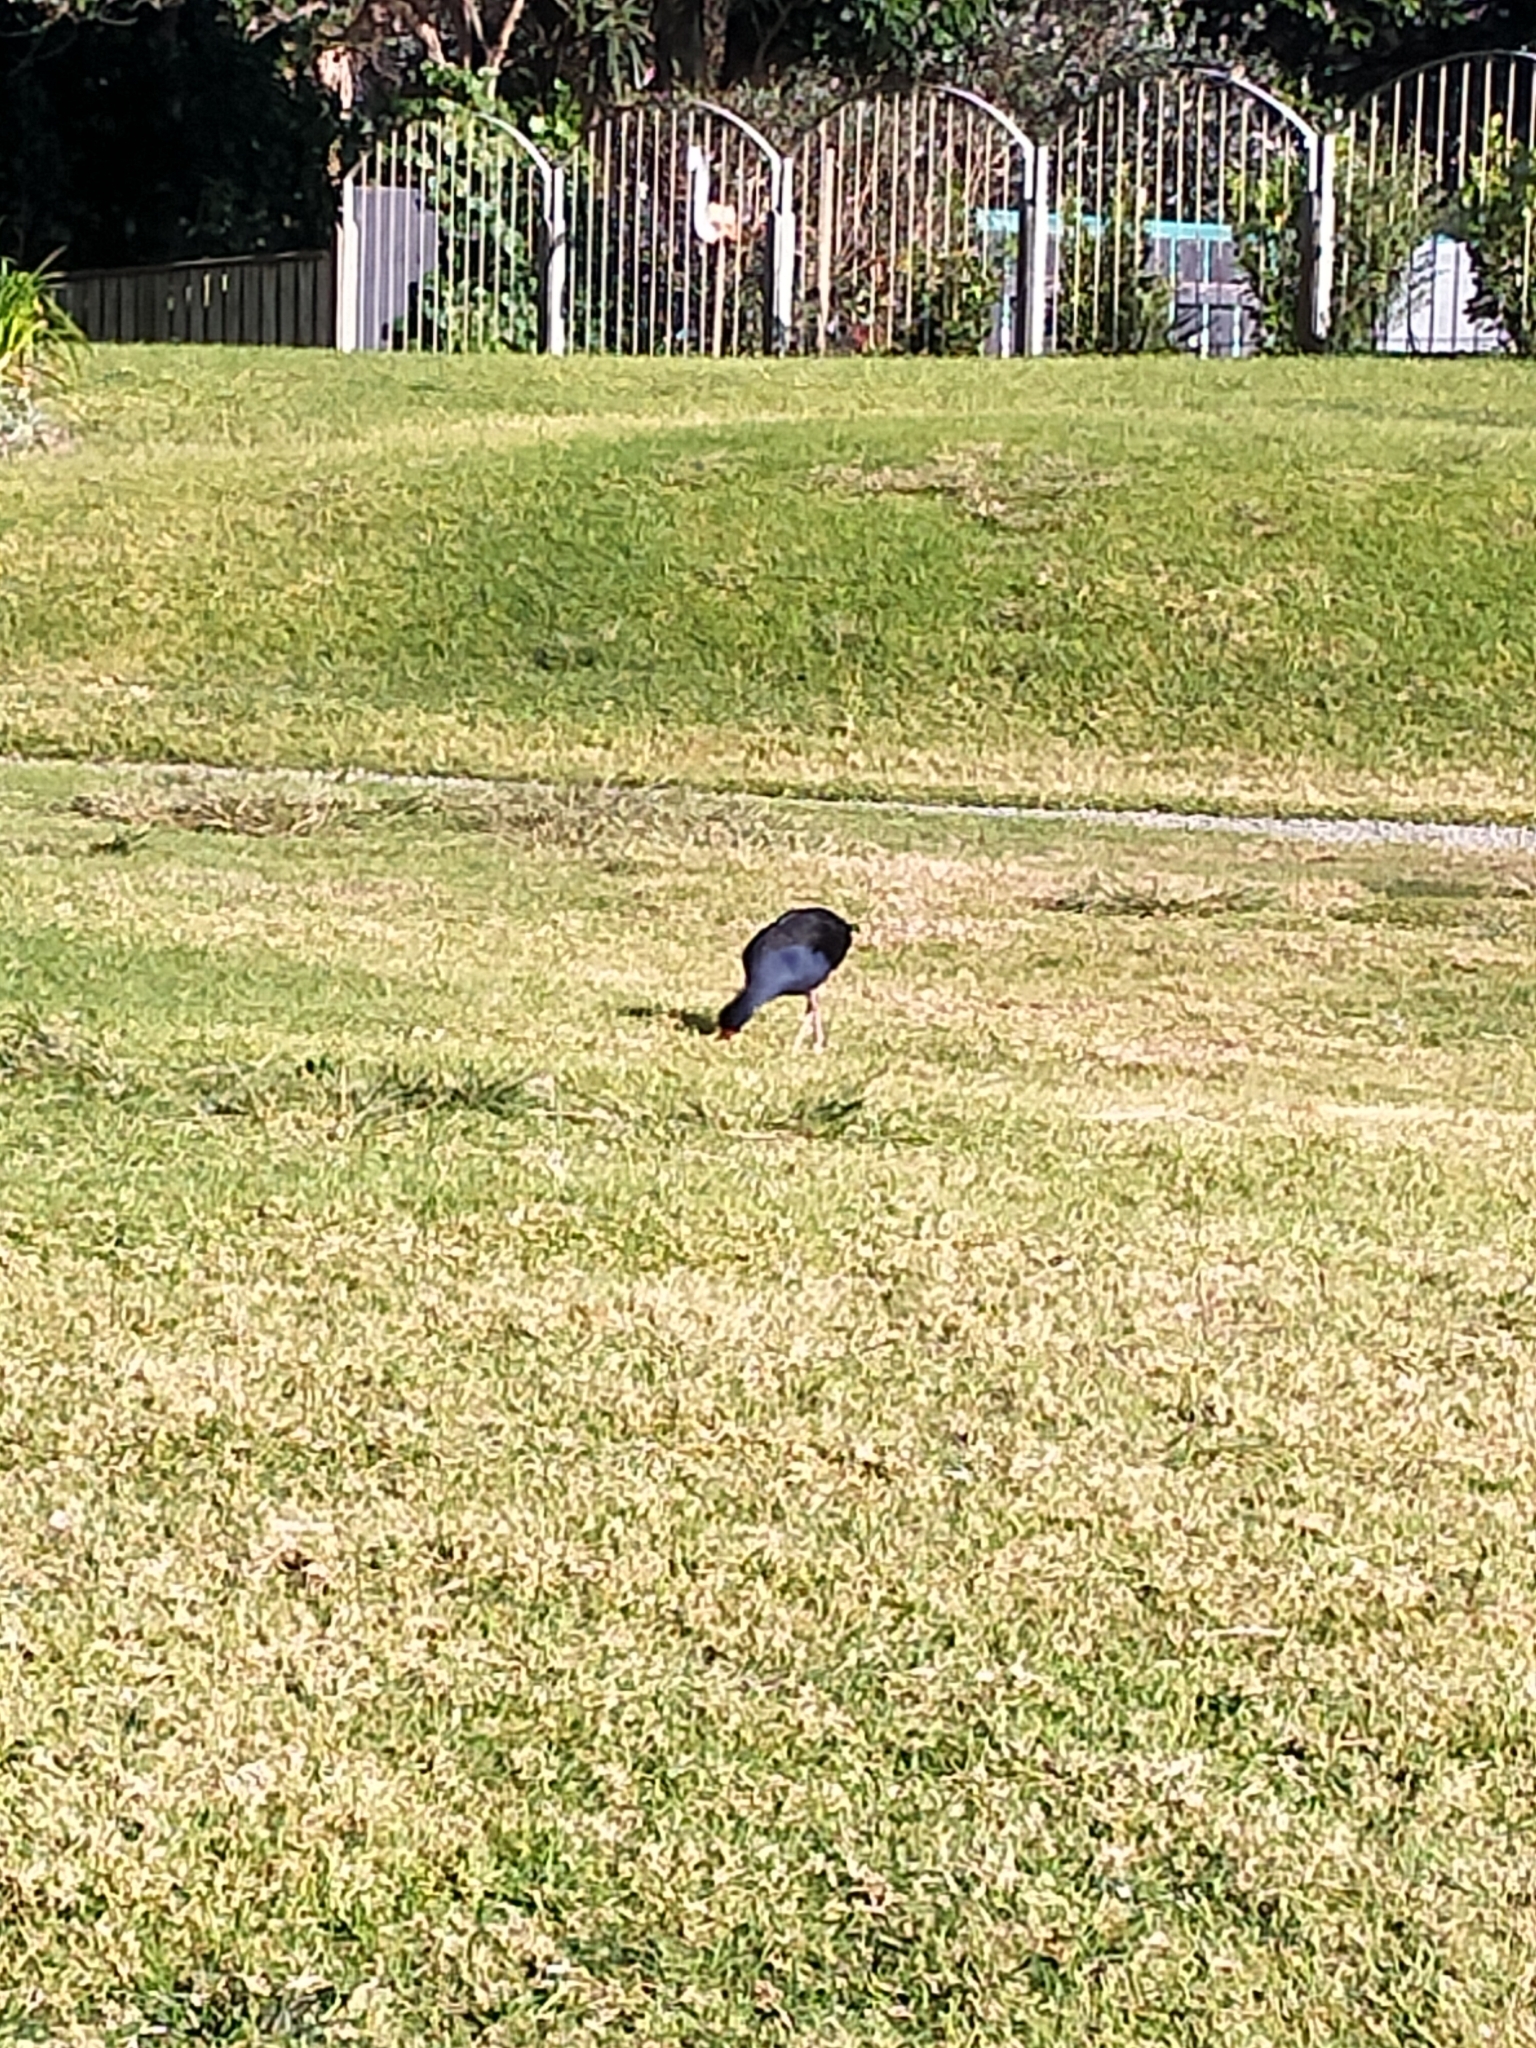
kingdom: Animalia
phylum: Chordata
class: Aves
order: Gruiformes
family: Rallidae
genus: Porphyrio
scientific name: Porphyrio melanotus
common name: Australasian swamphen
